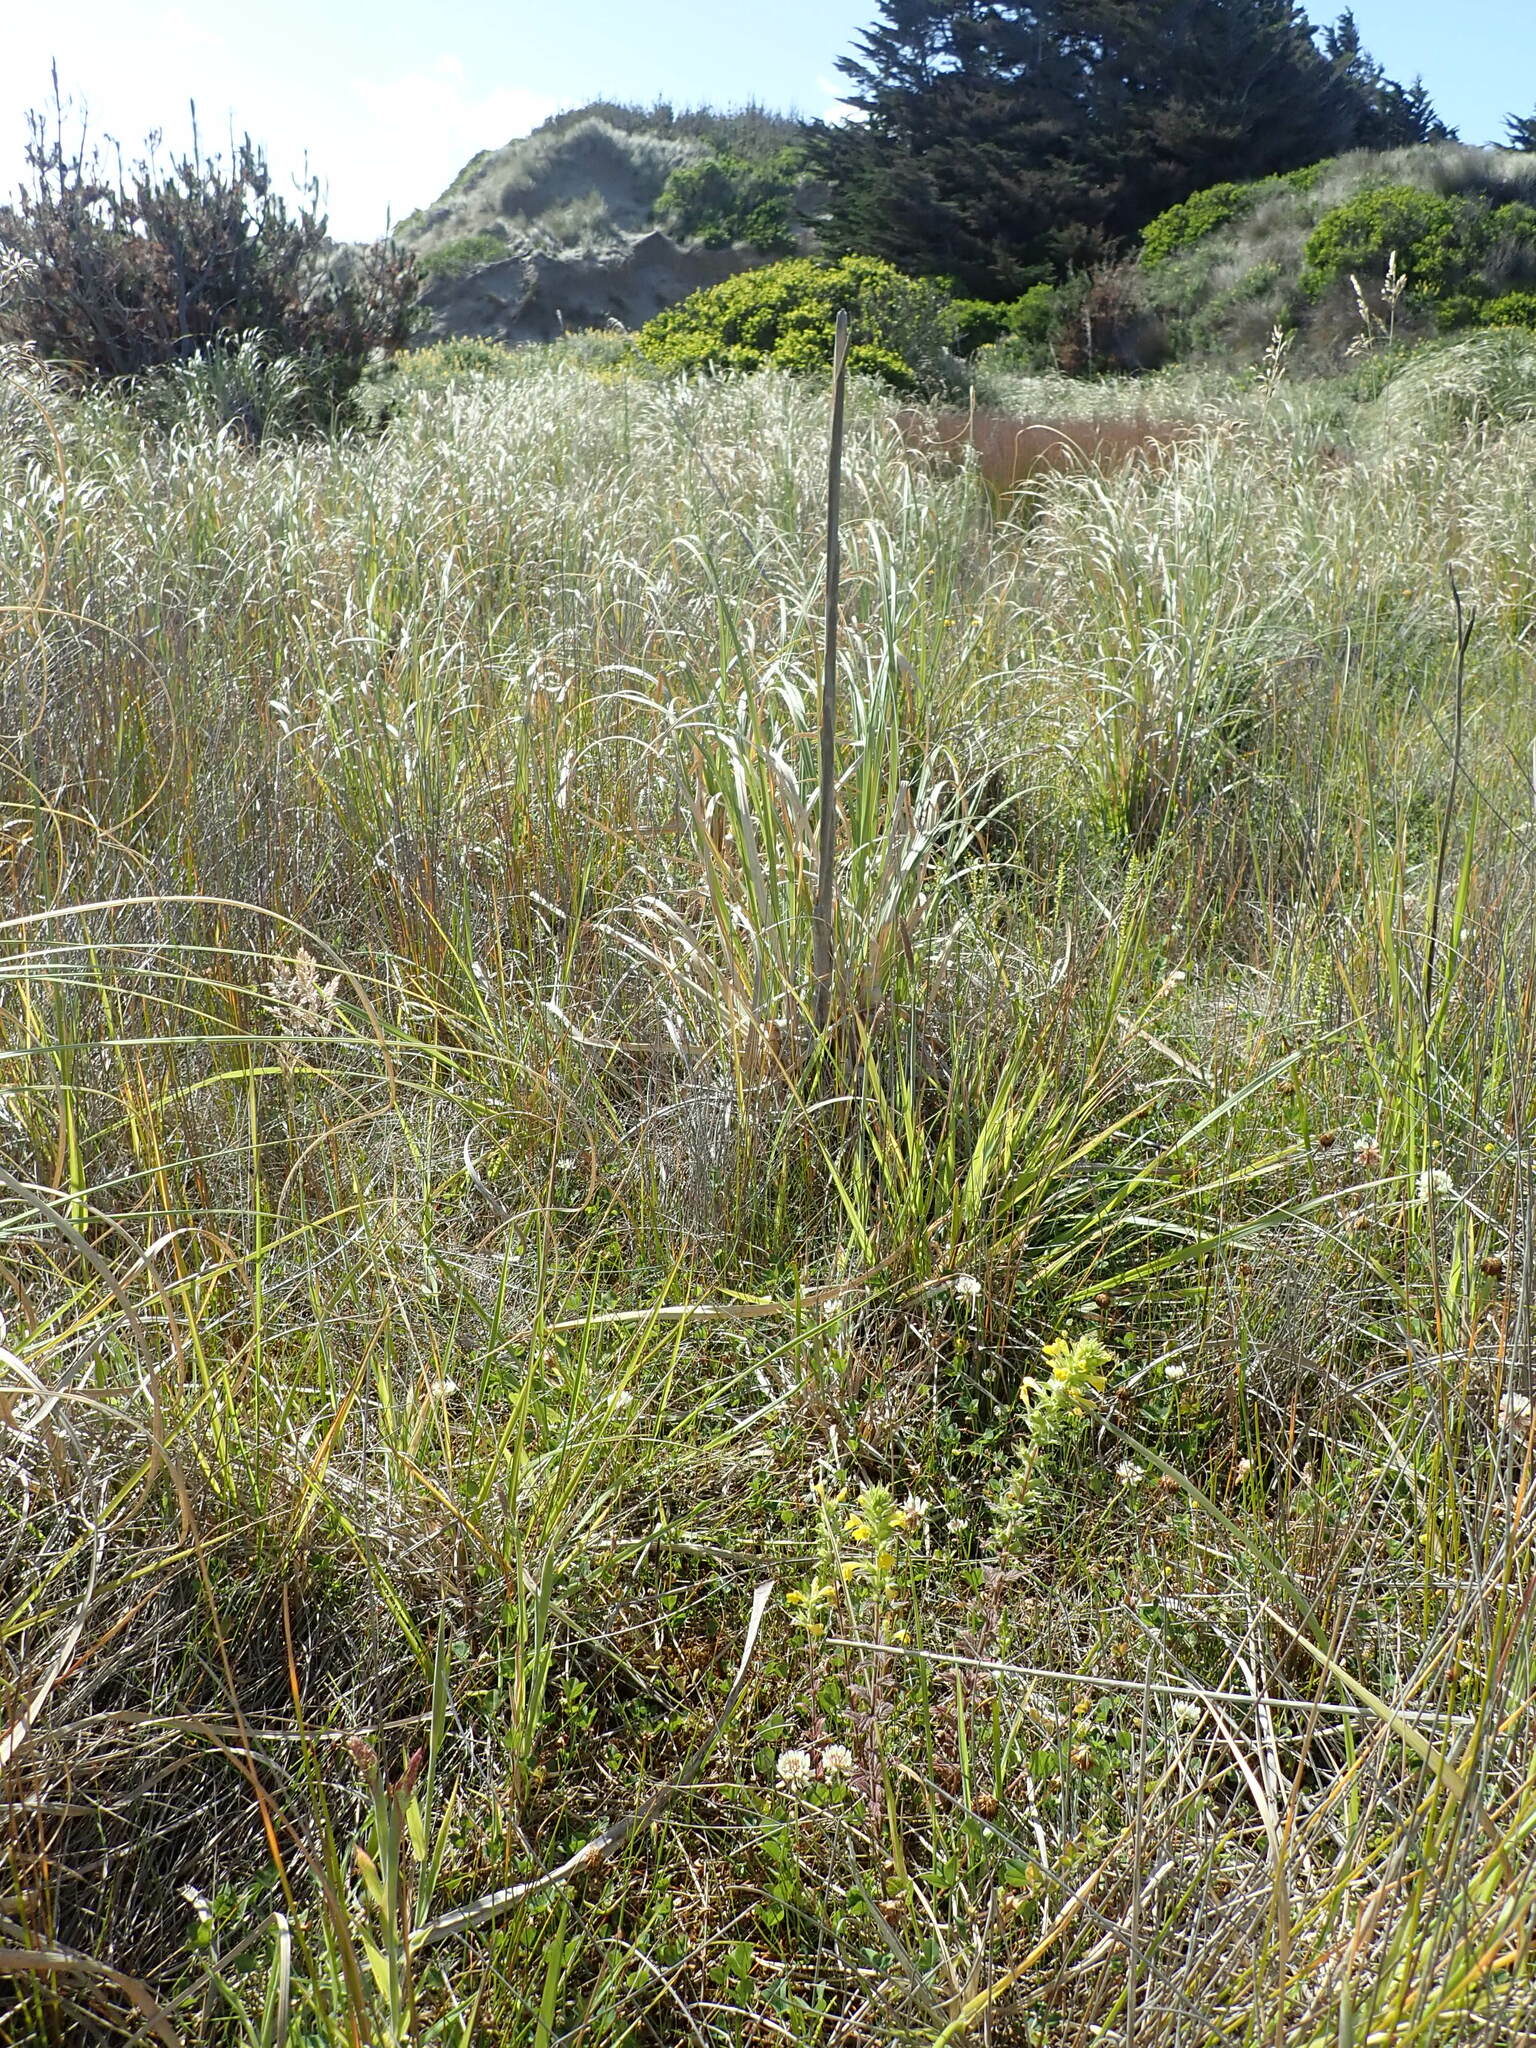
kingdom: Plantae
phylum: Tracheophyta
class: Magnoliopsida
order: Lamiales
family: Orobanchaceae
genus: Bellardia
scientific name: Bellardia viscosa
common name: Sticky parentucellia
